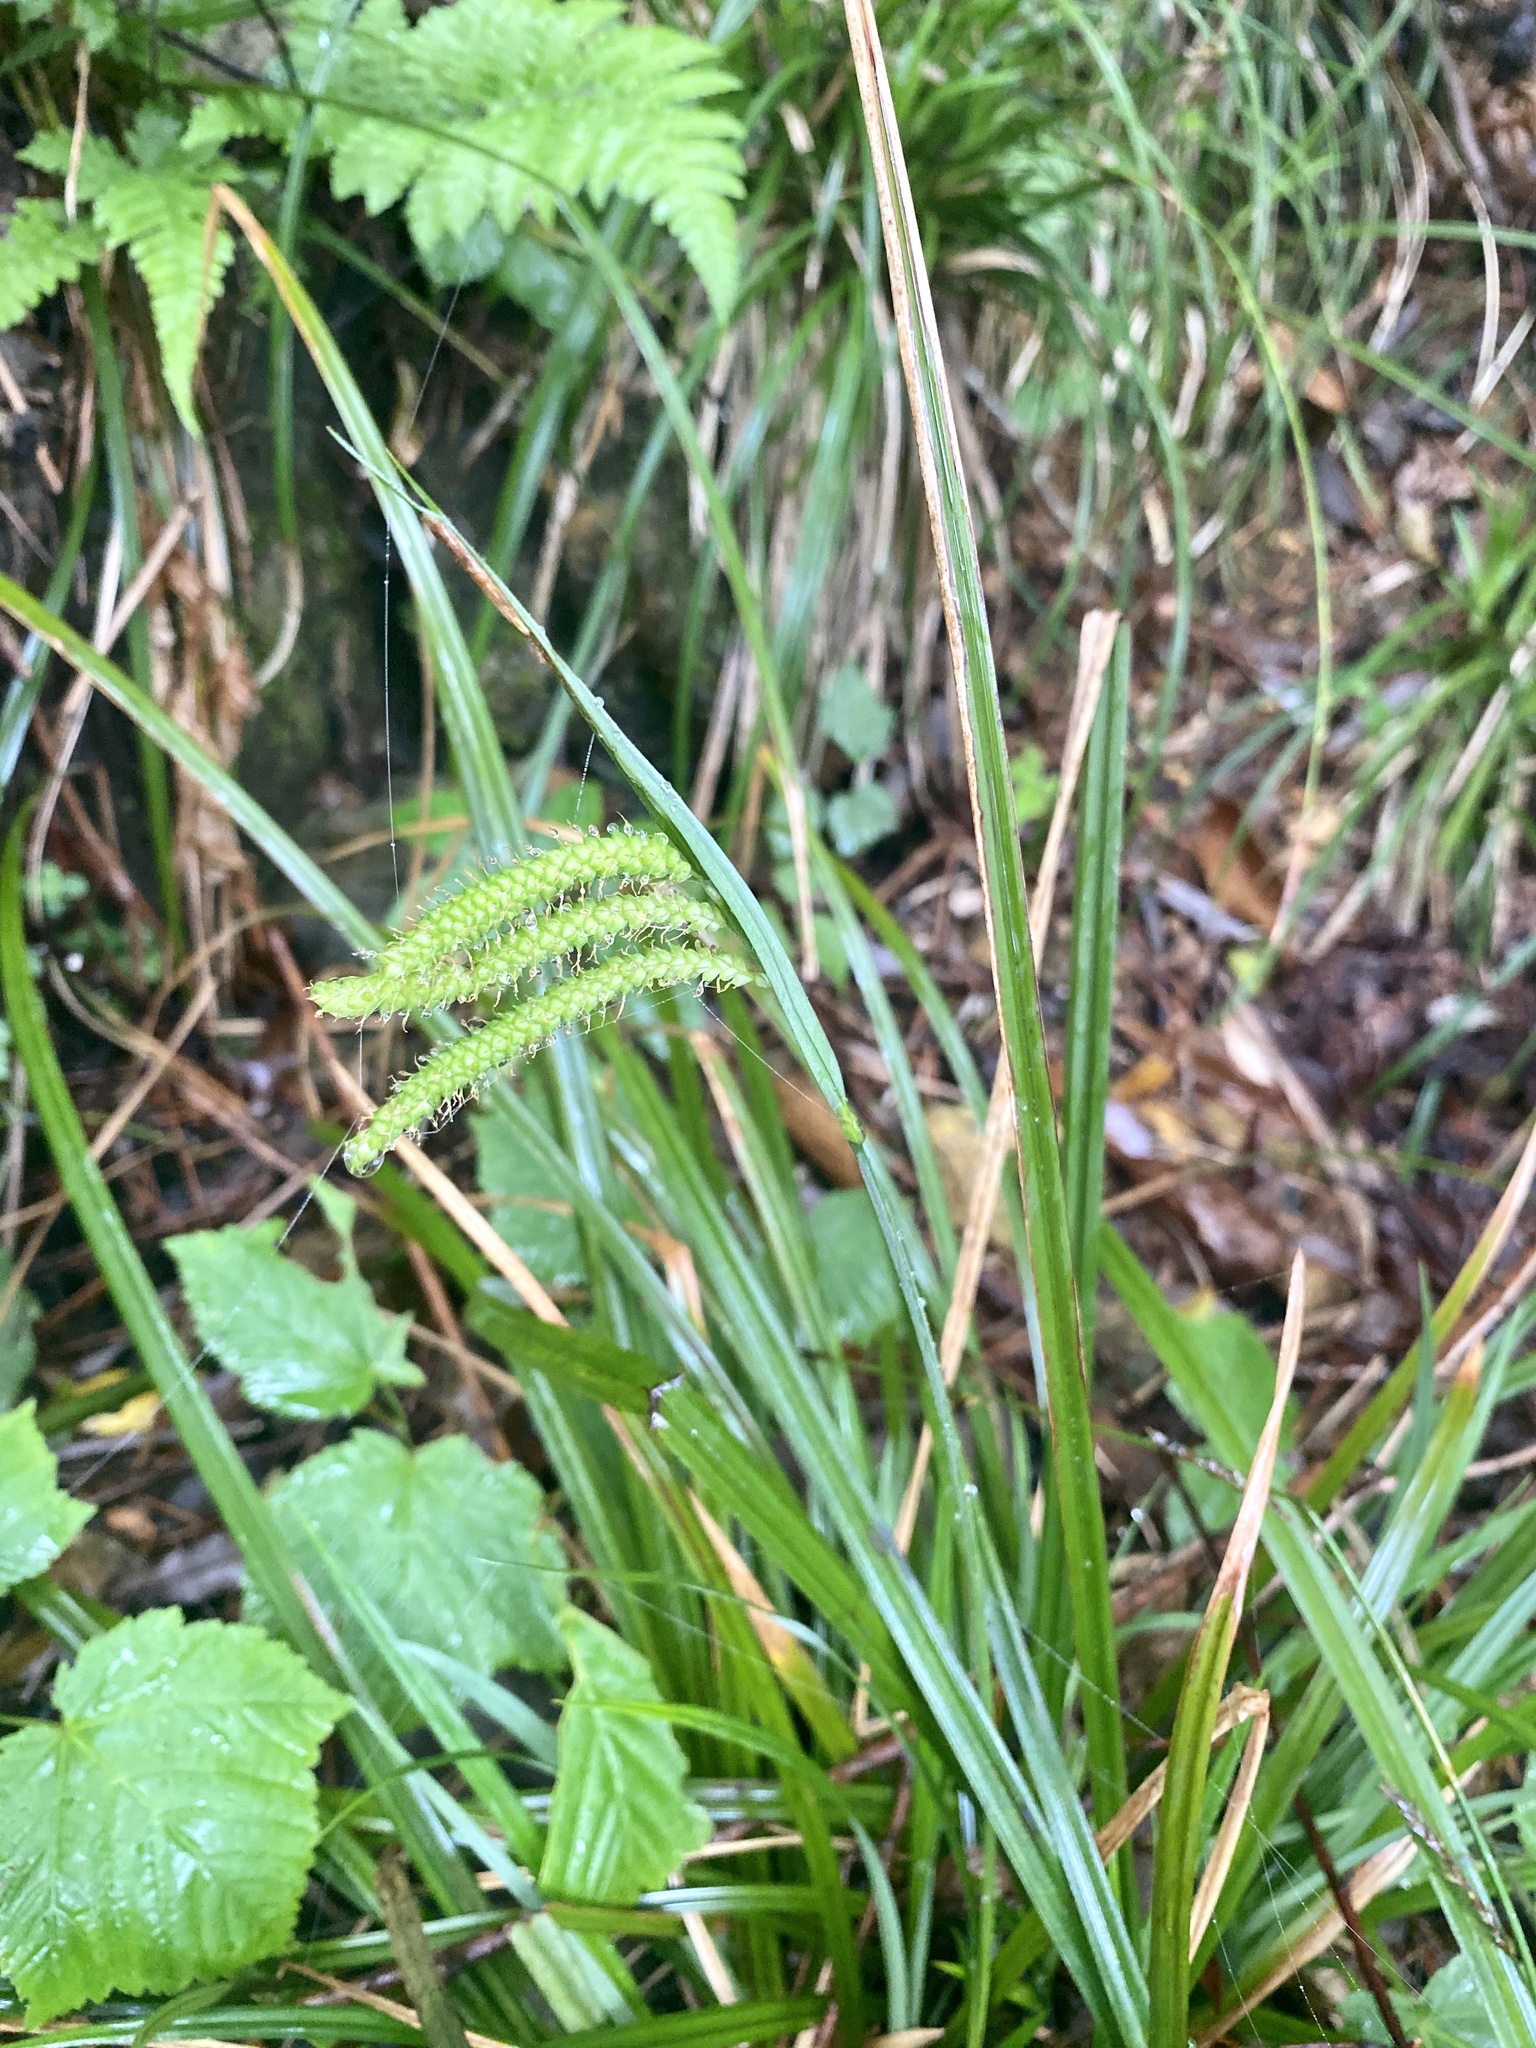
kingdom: Plantae
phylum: Tracheophyta
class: Liliopsida
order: Poales
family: Cyperaceae
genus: Carex
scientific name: Carex flabellata
